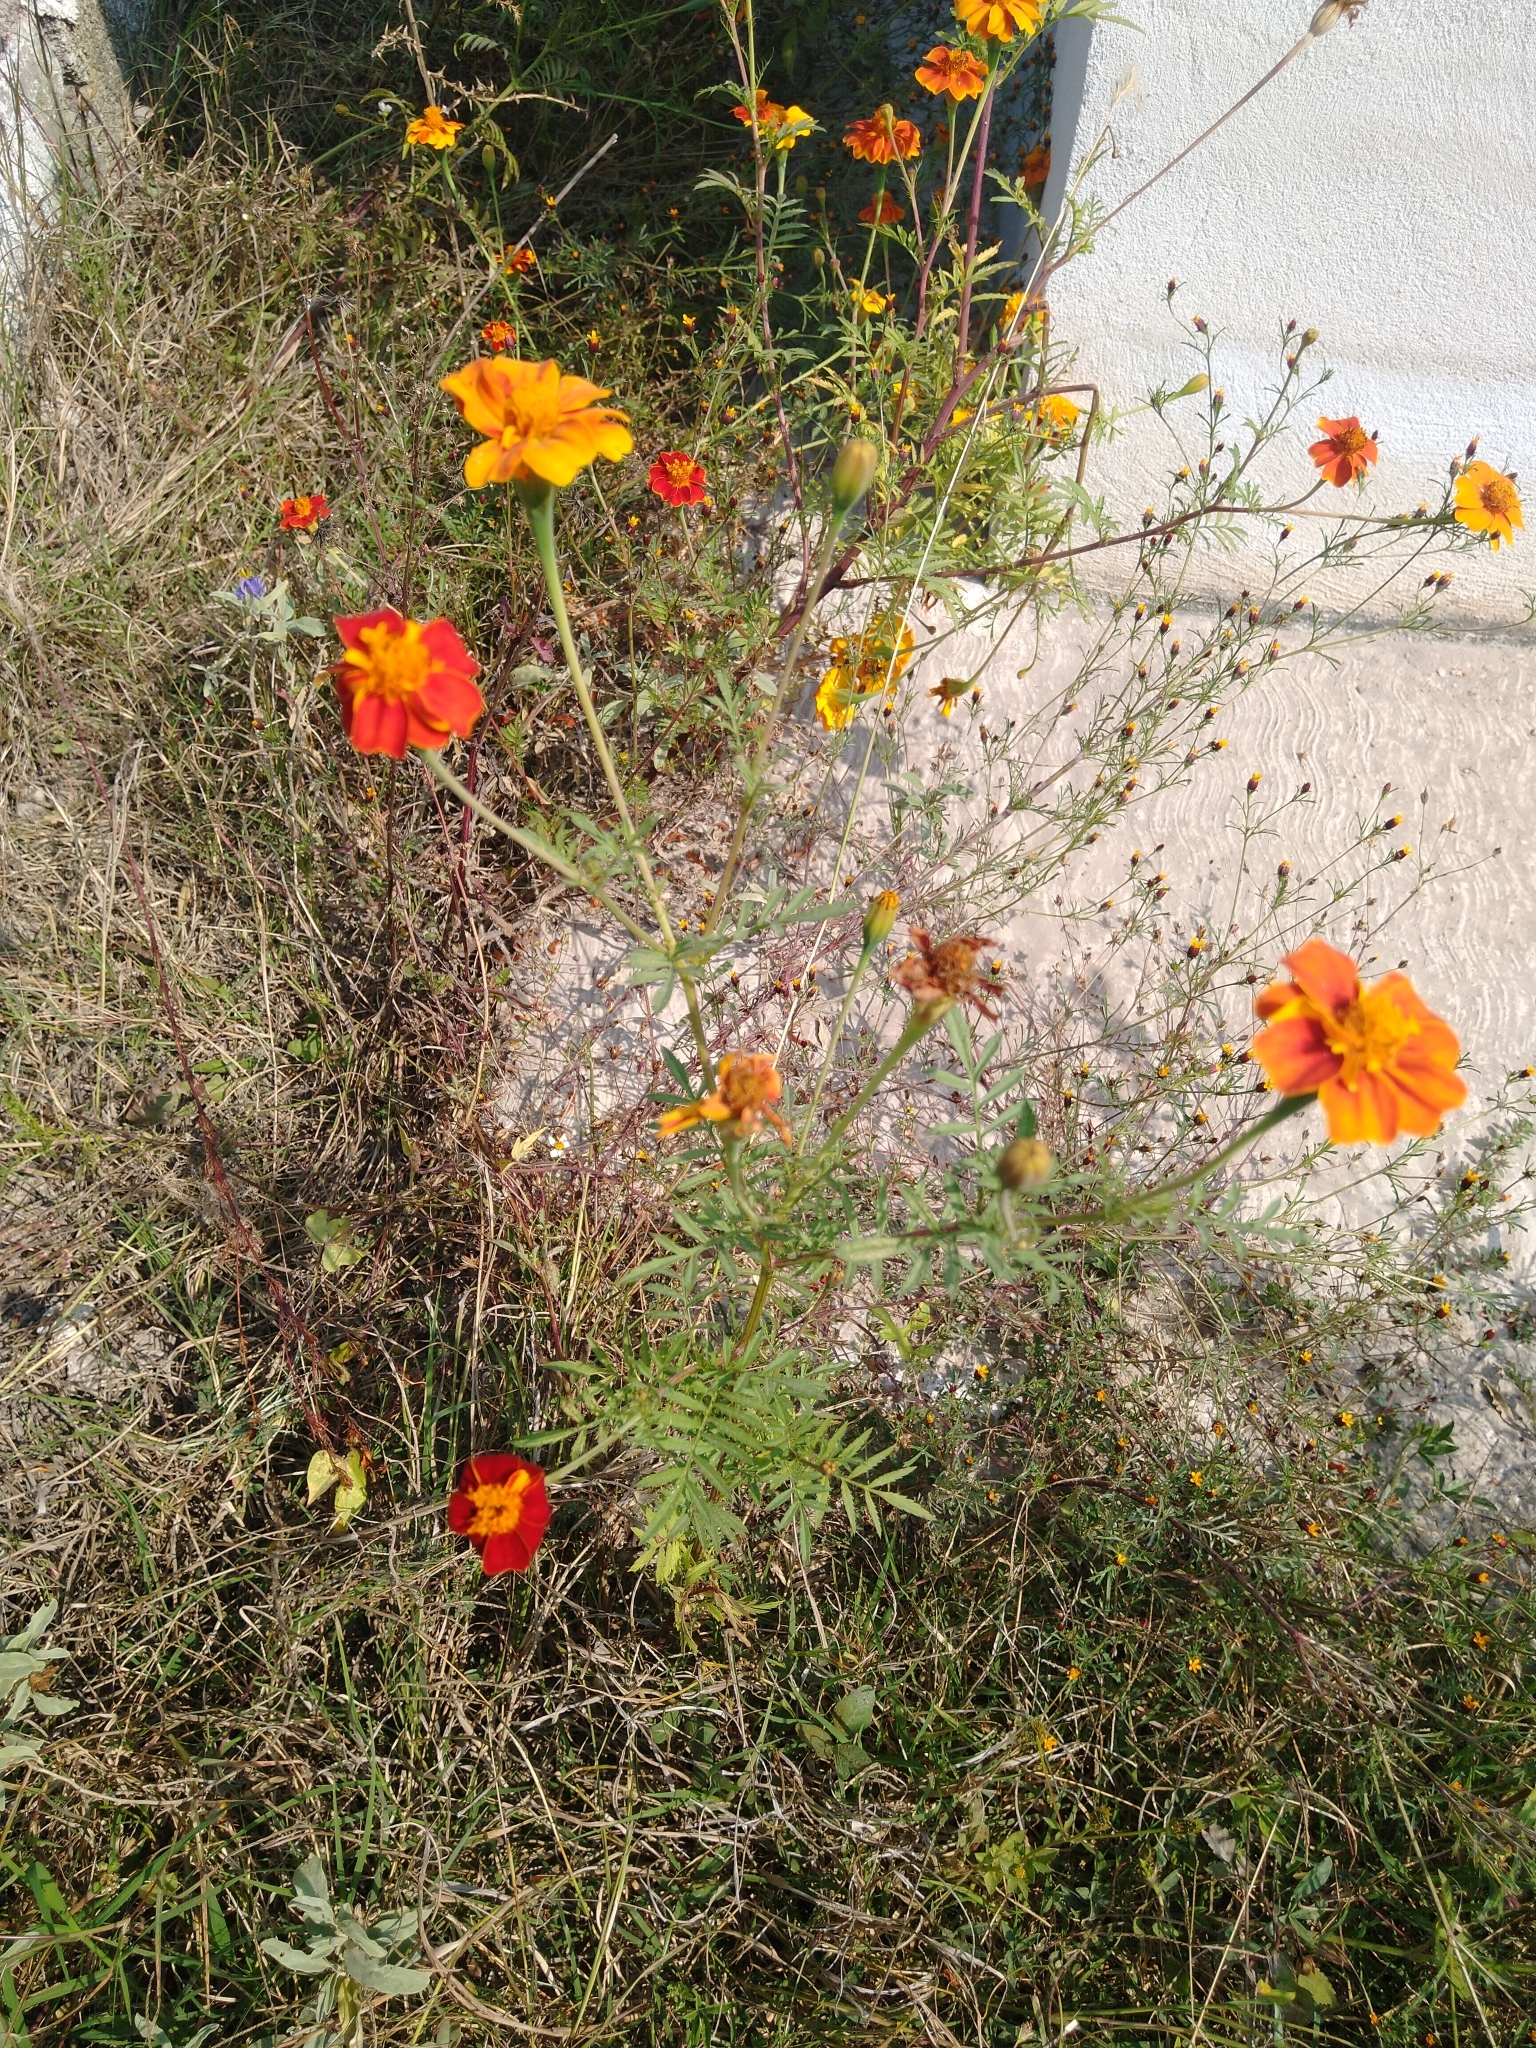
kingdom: Plantae
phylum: Tracheophyta
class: Magnoliopsida
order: Asterales
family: Asteraceae
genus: Tagetes
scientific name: Tagetes erecta
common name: African marigold
